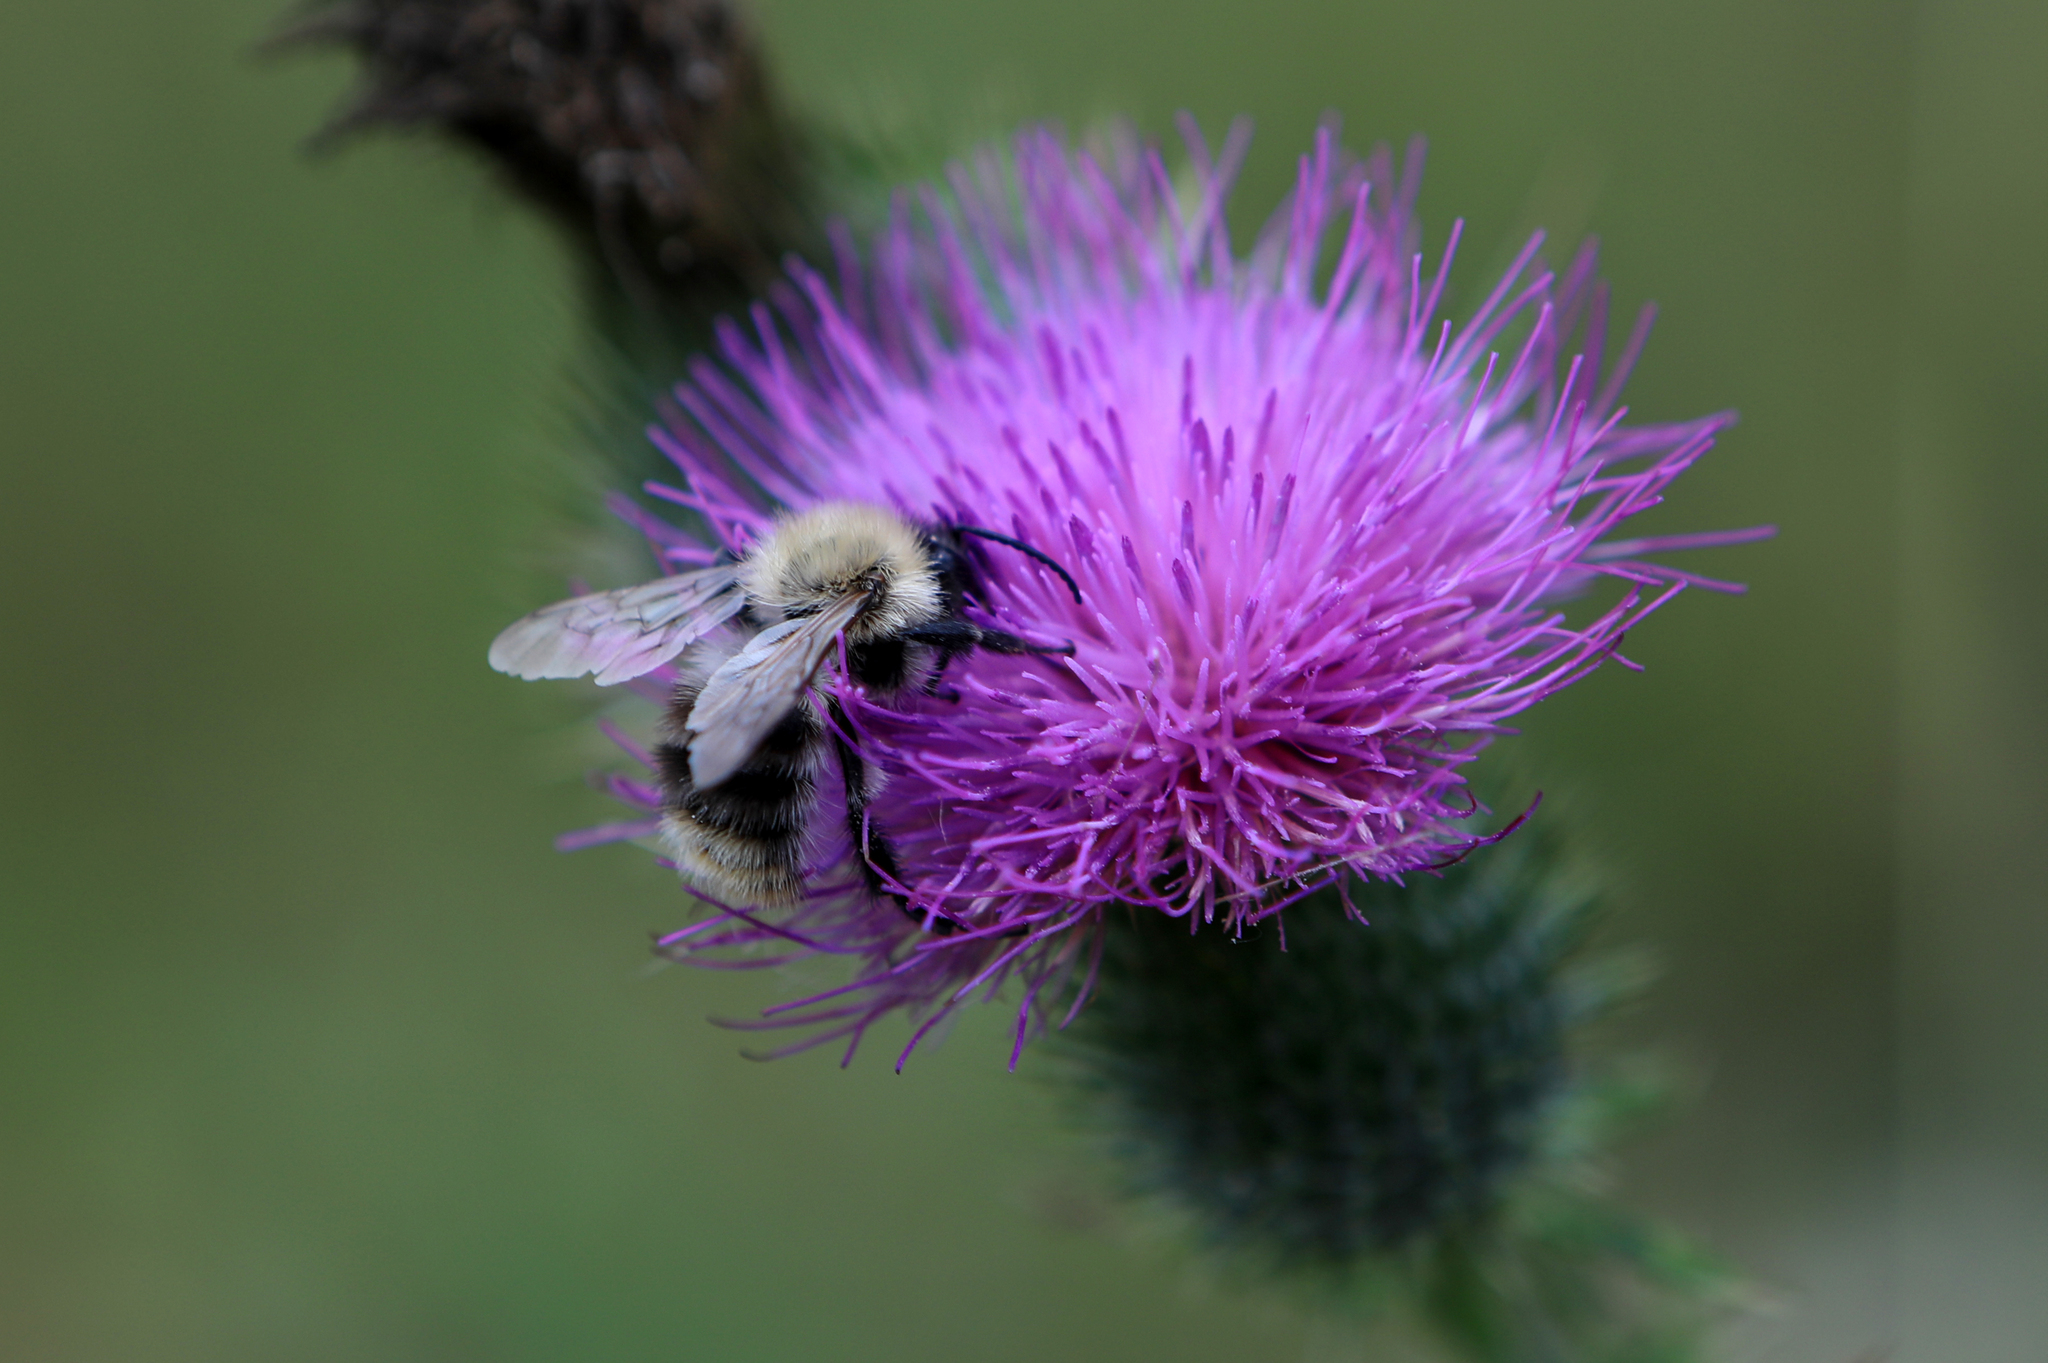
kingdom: Animalia
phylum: Arthropoda
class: Insecta
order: Hymenoptera
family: Apidae
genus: Bombus
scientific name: Bombus pascuorum
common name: Common carder bee
